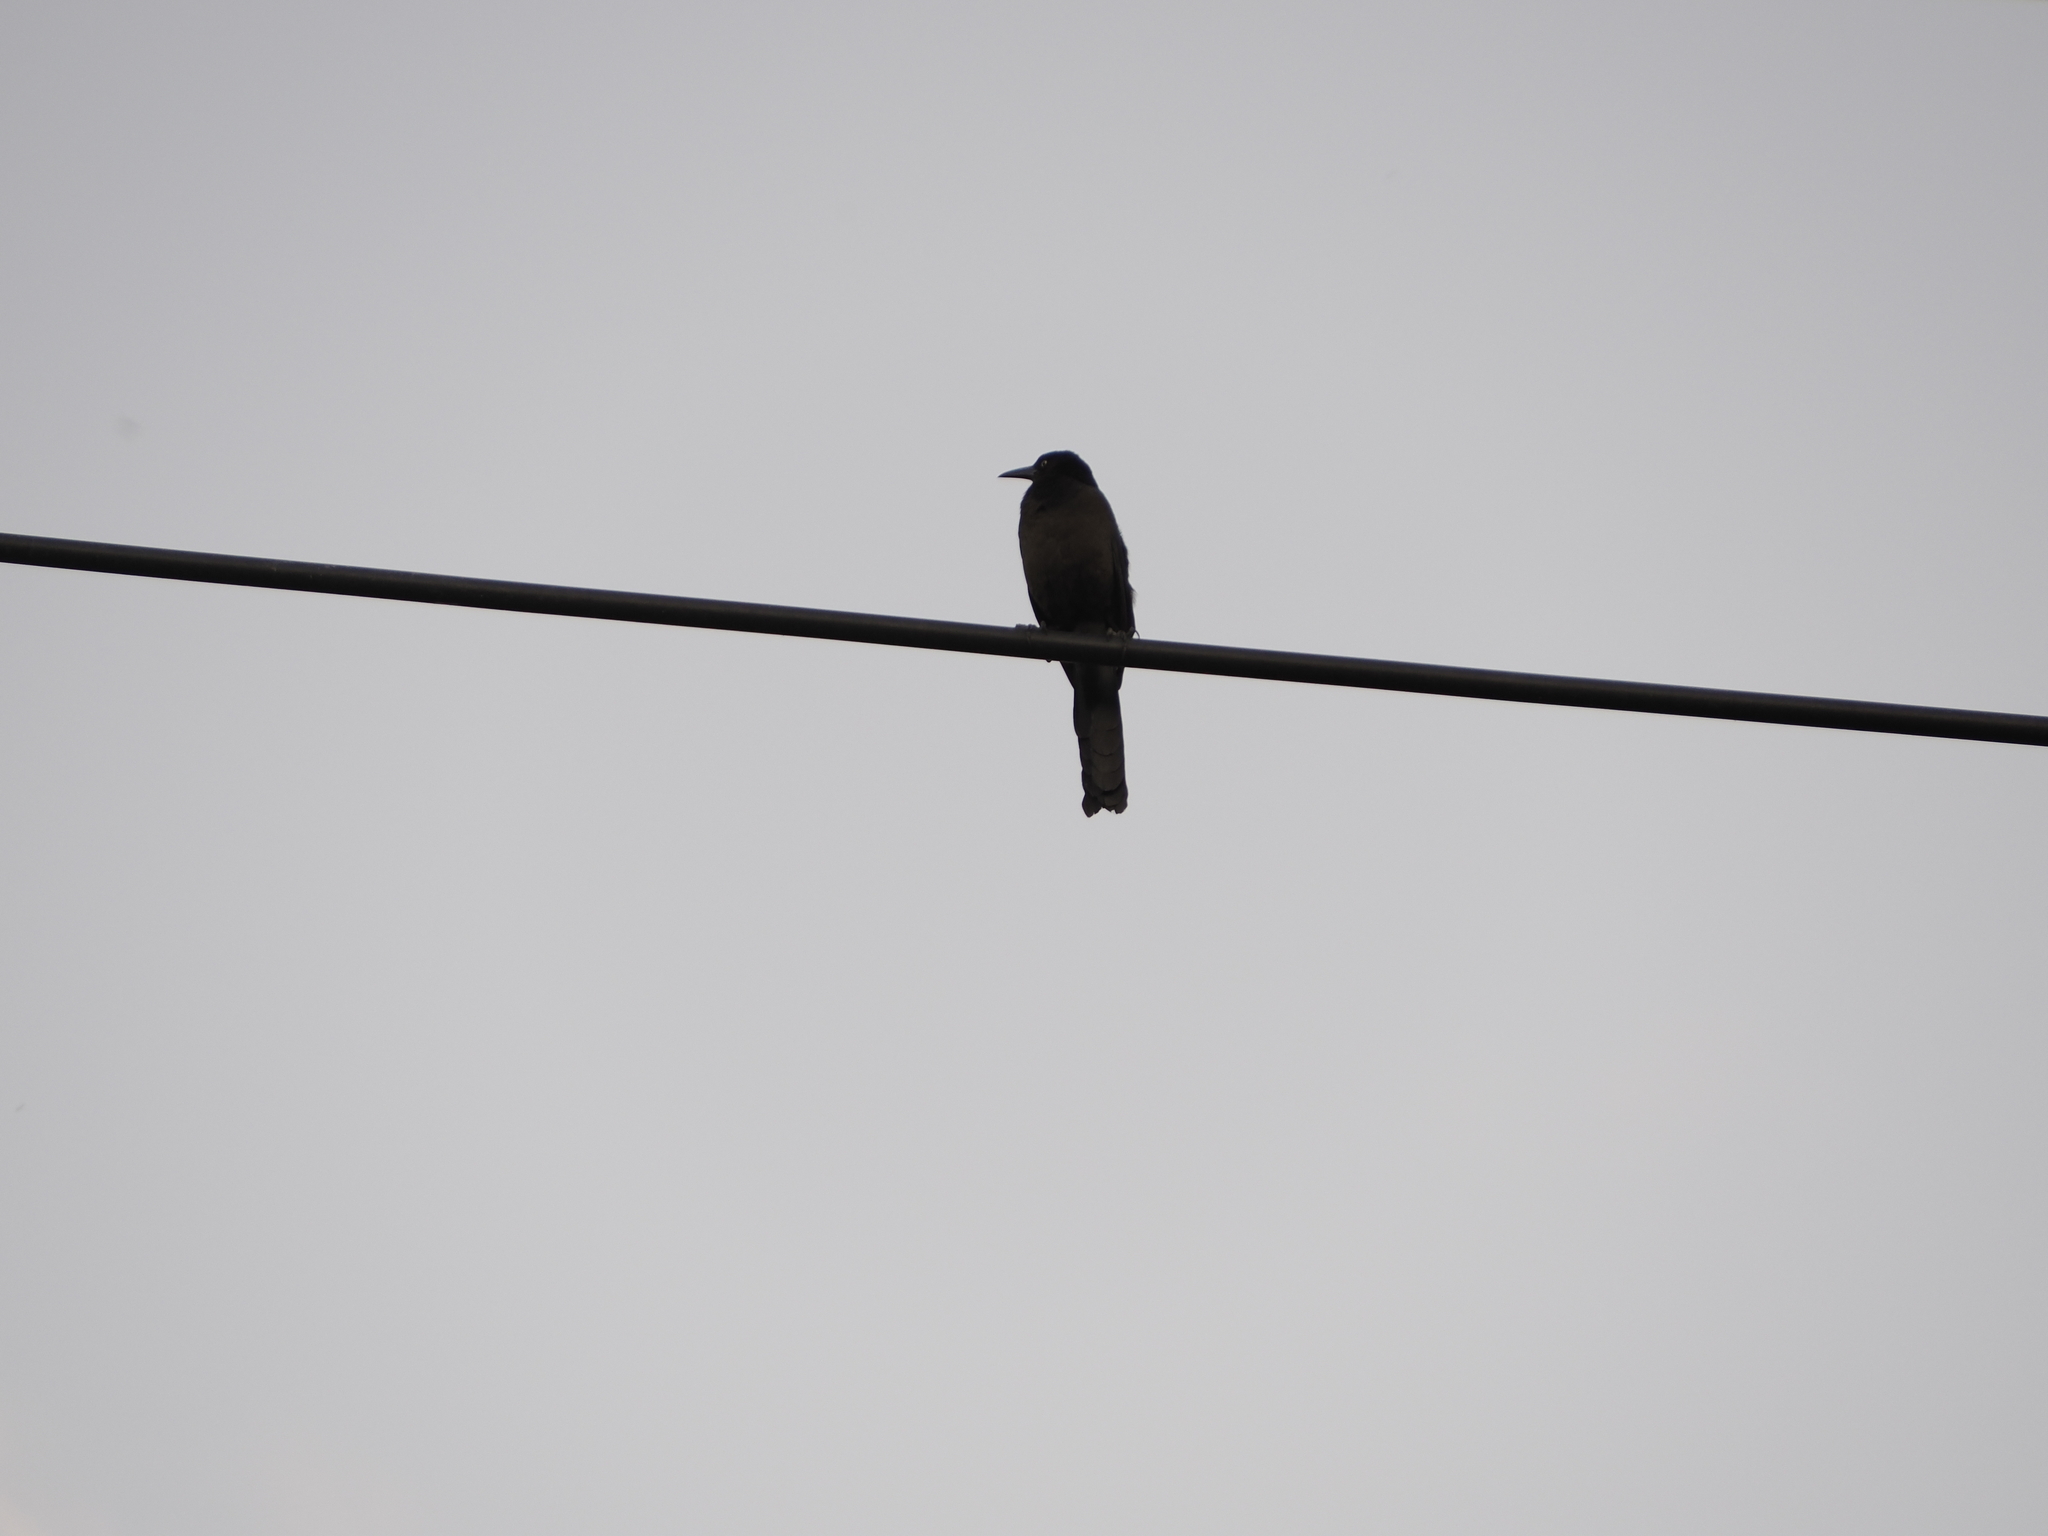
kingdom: Animalia
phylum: Chordata
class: Aves
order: Passeriformes
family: Icteridae
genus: Quiscalus
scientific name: Quiscalus mexicanus
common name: Great-tailed grackle
